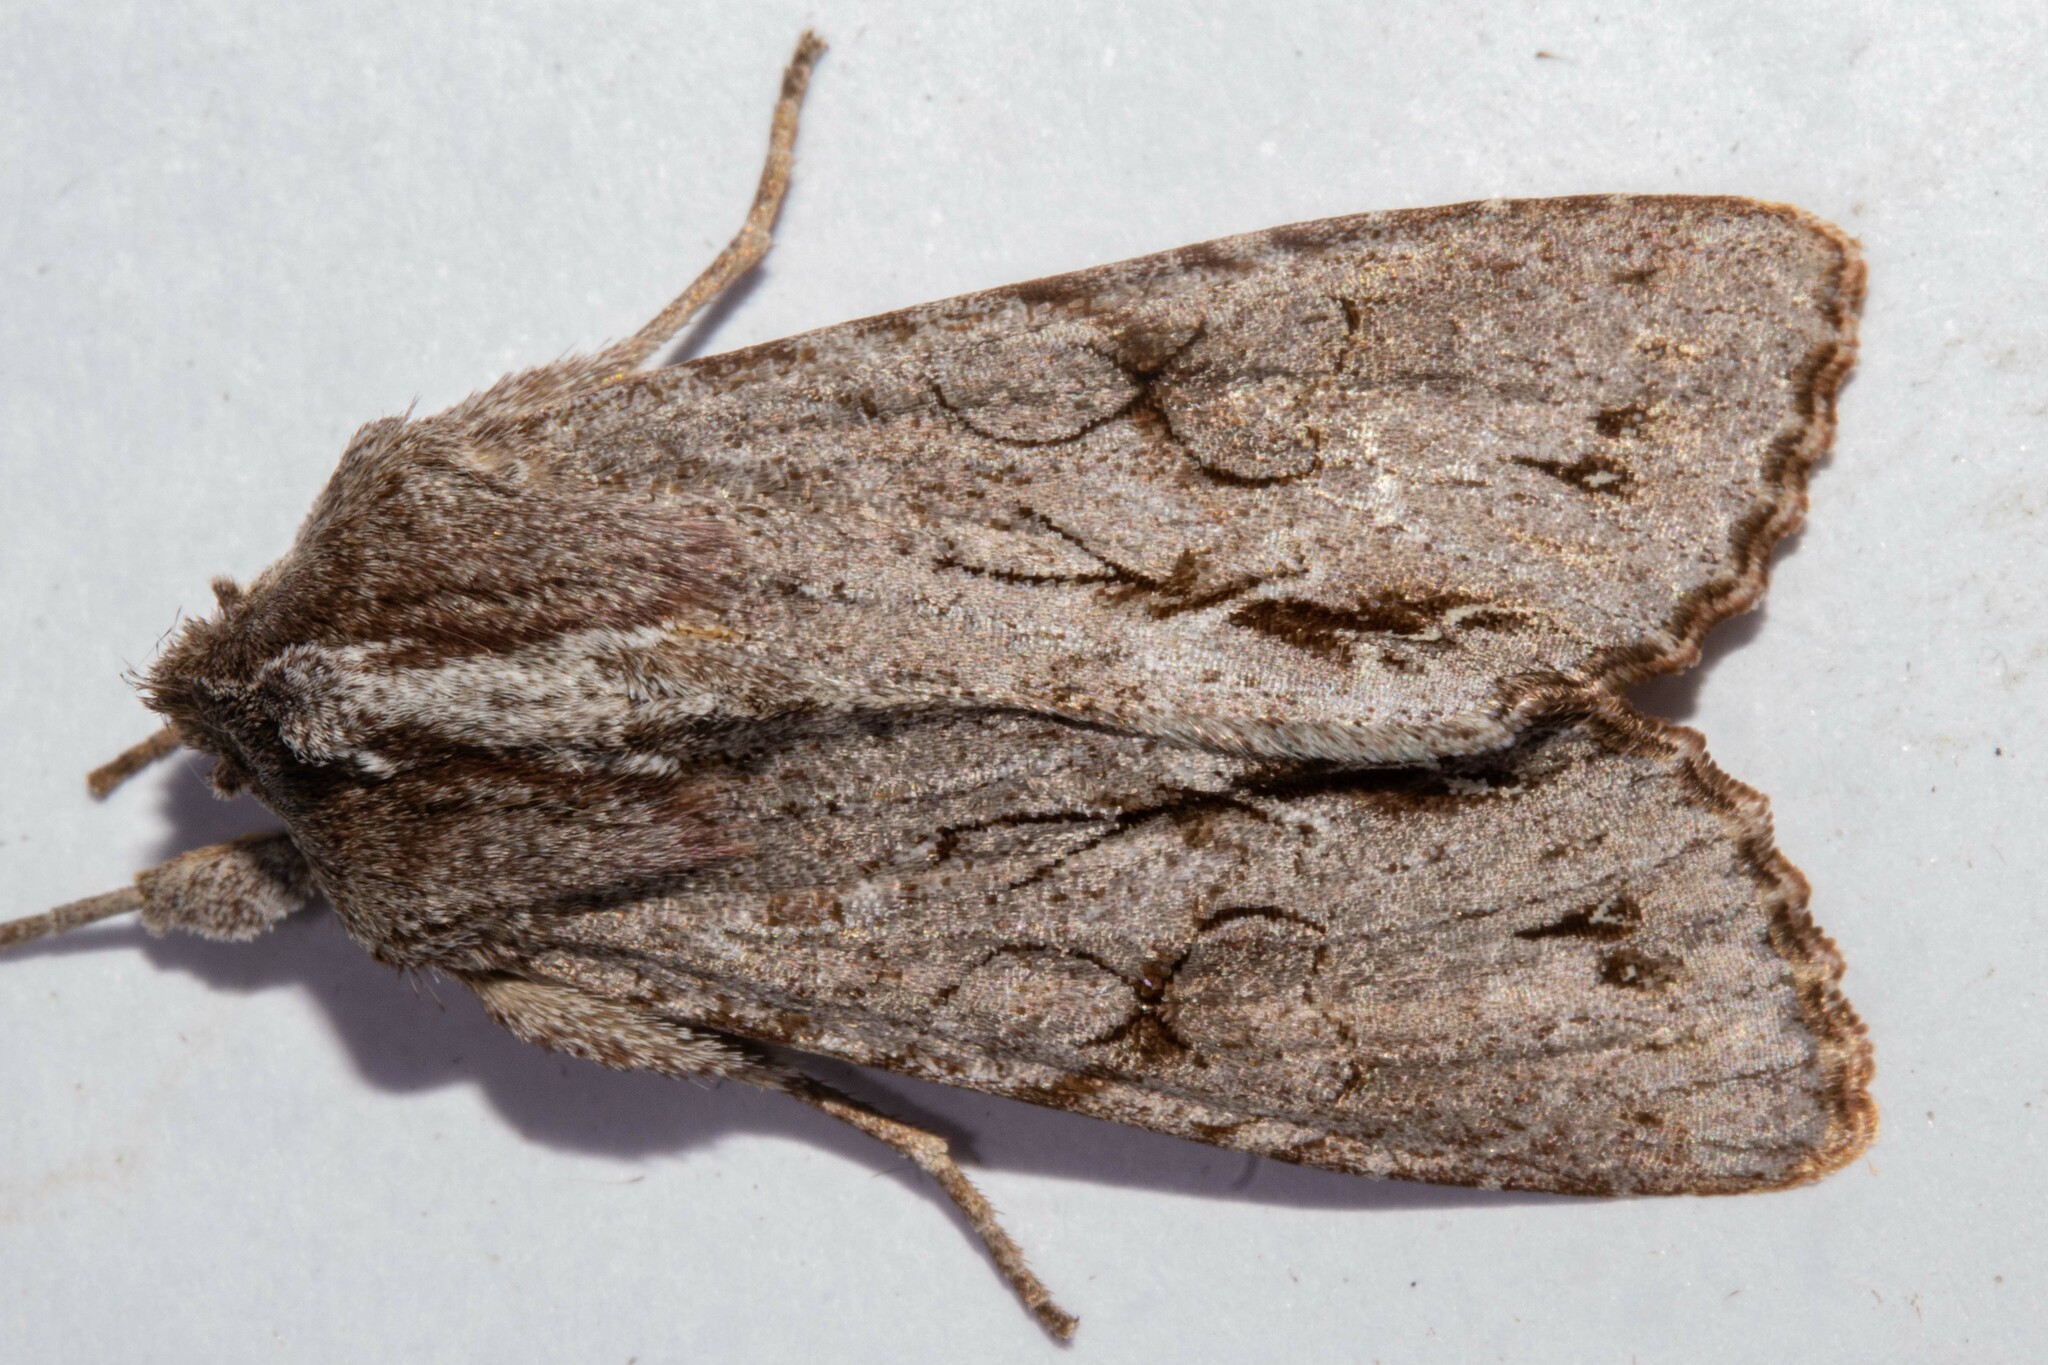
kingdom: Animalia
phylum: Arthropoda
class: Insecta
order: Lepidoptera
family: Noctuidae
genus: Ichneutica
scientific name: Ichneutica
